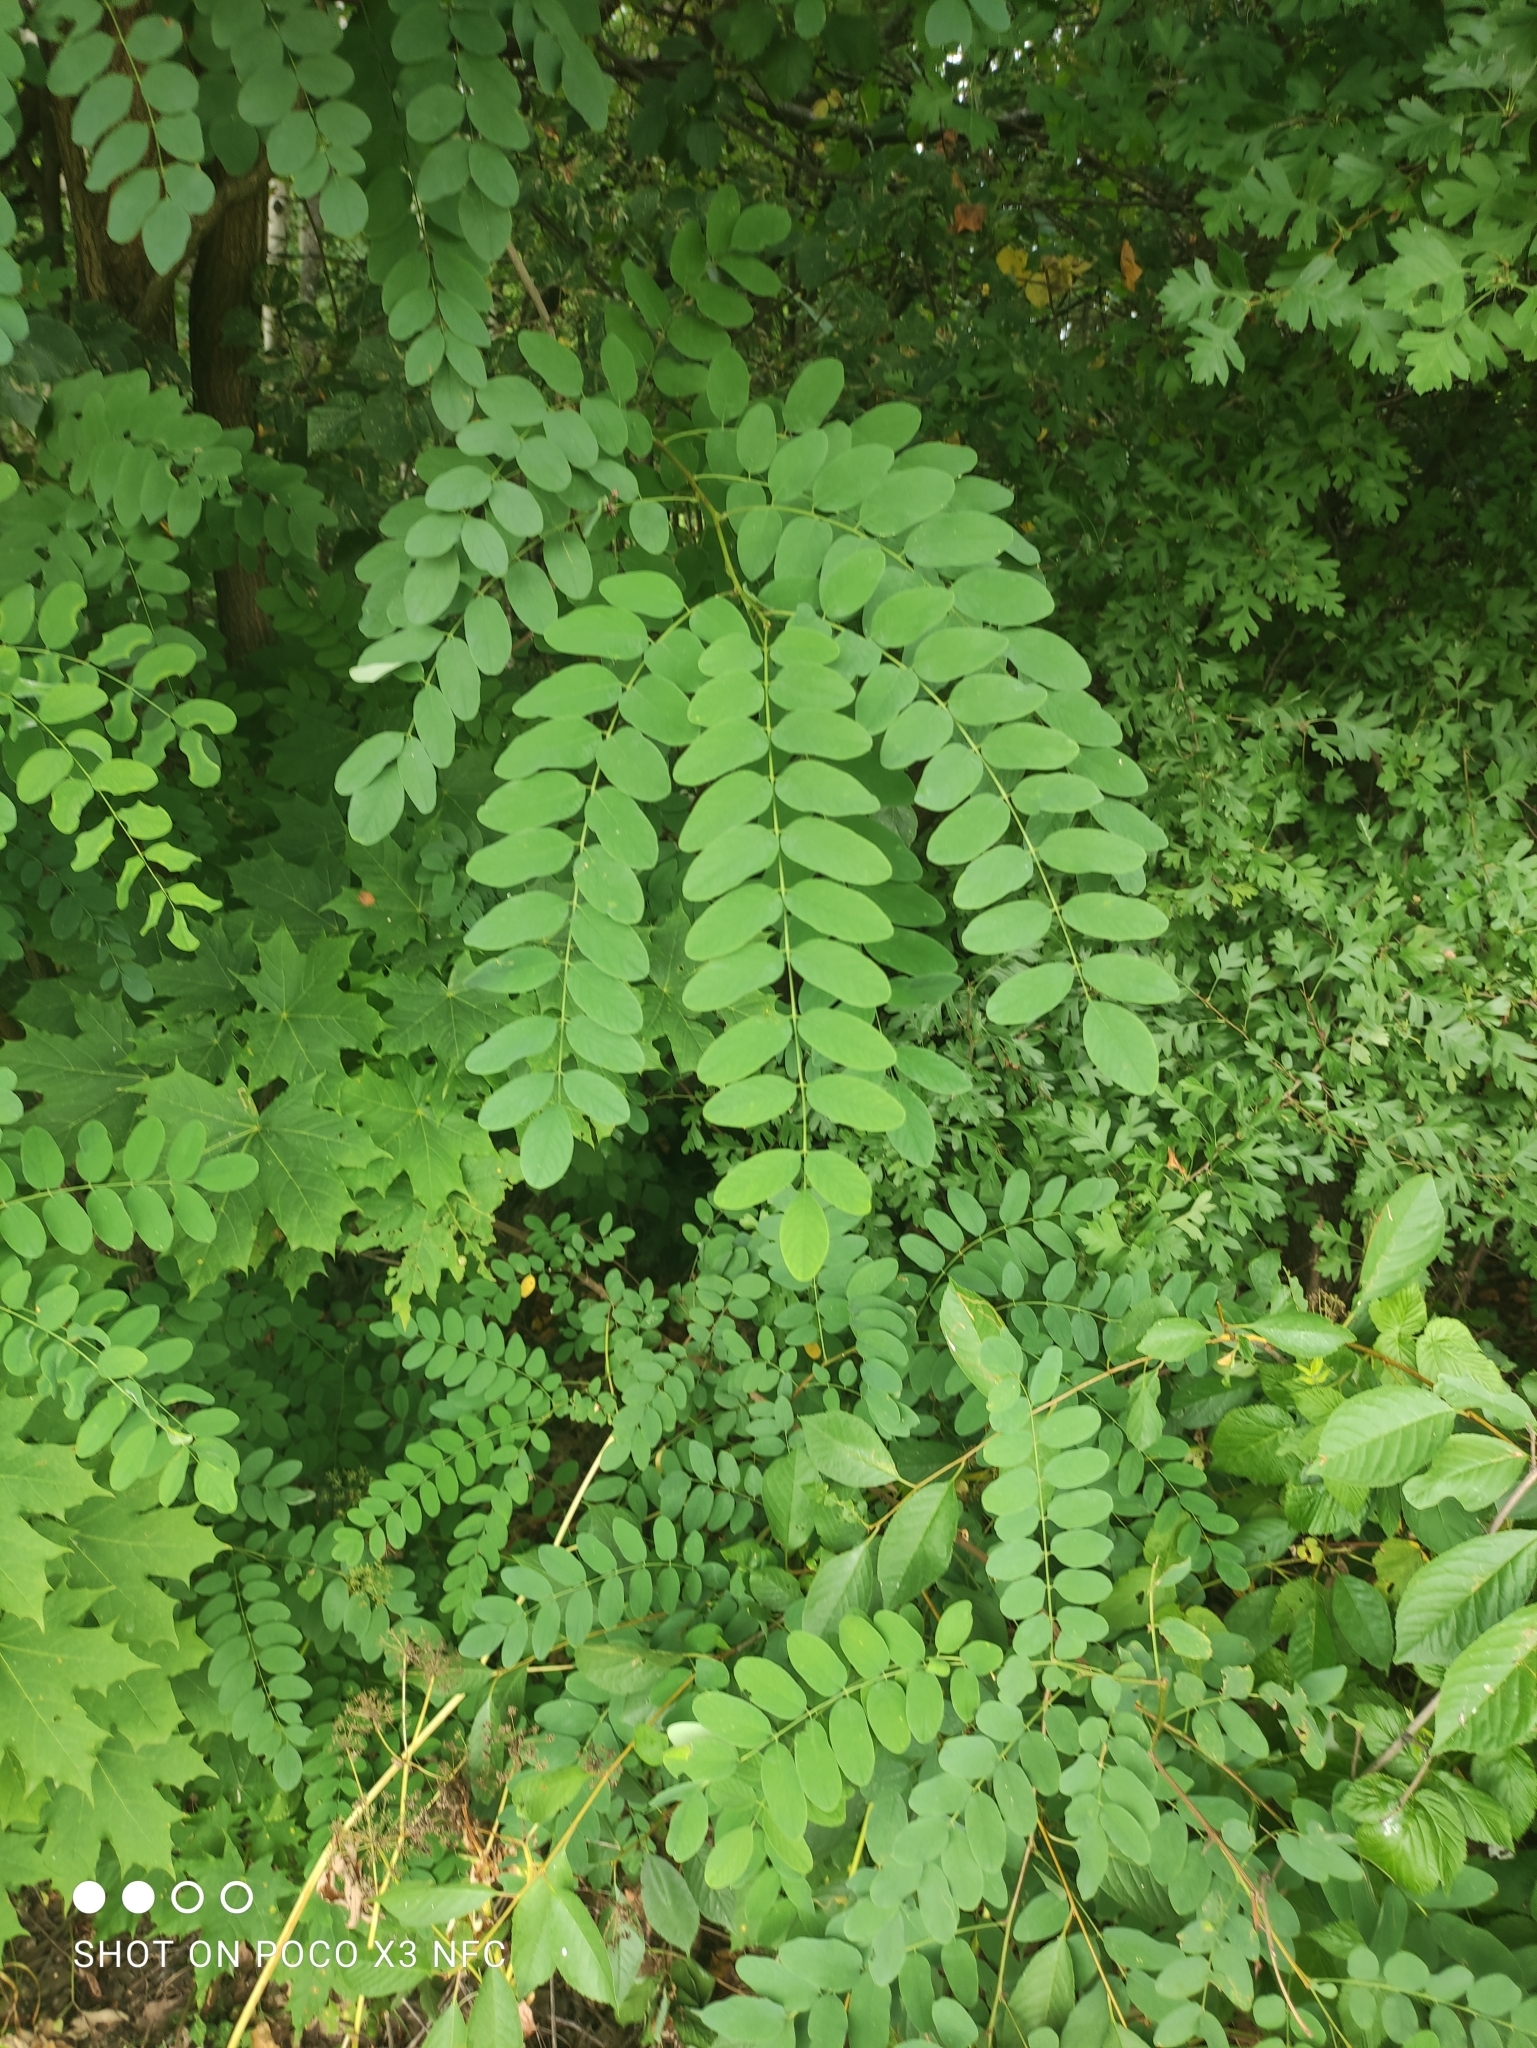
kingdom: Plantae
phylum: Tracheophyta
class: Magnoliopsida
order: Fabales
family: Fabaceae
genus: Robinia
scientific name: Robinia pseudoacacia
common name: Black locust
